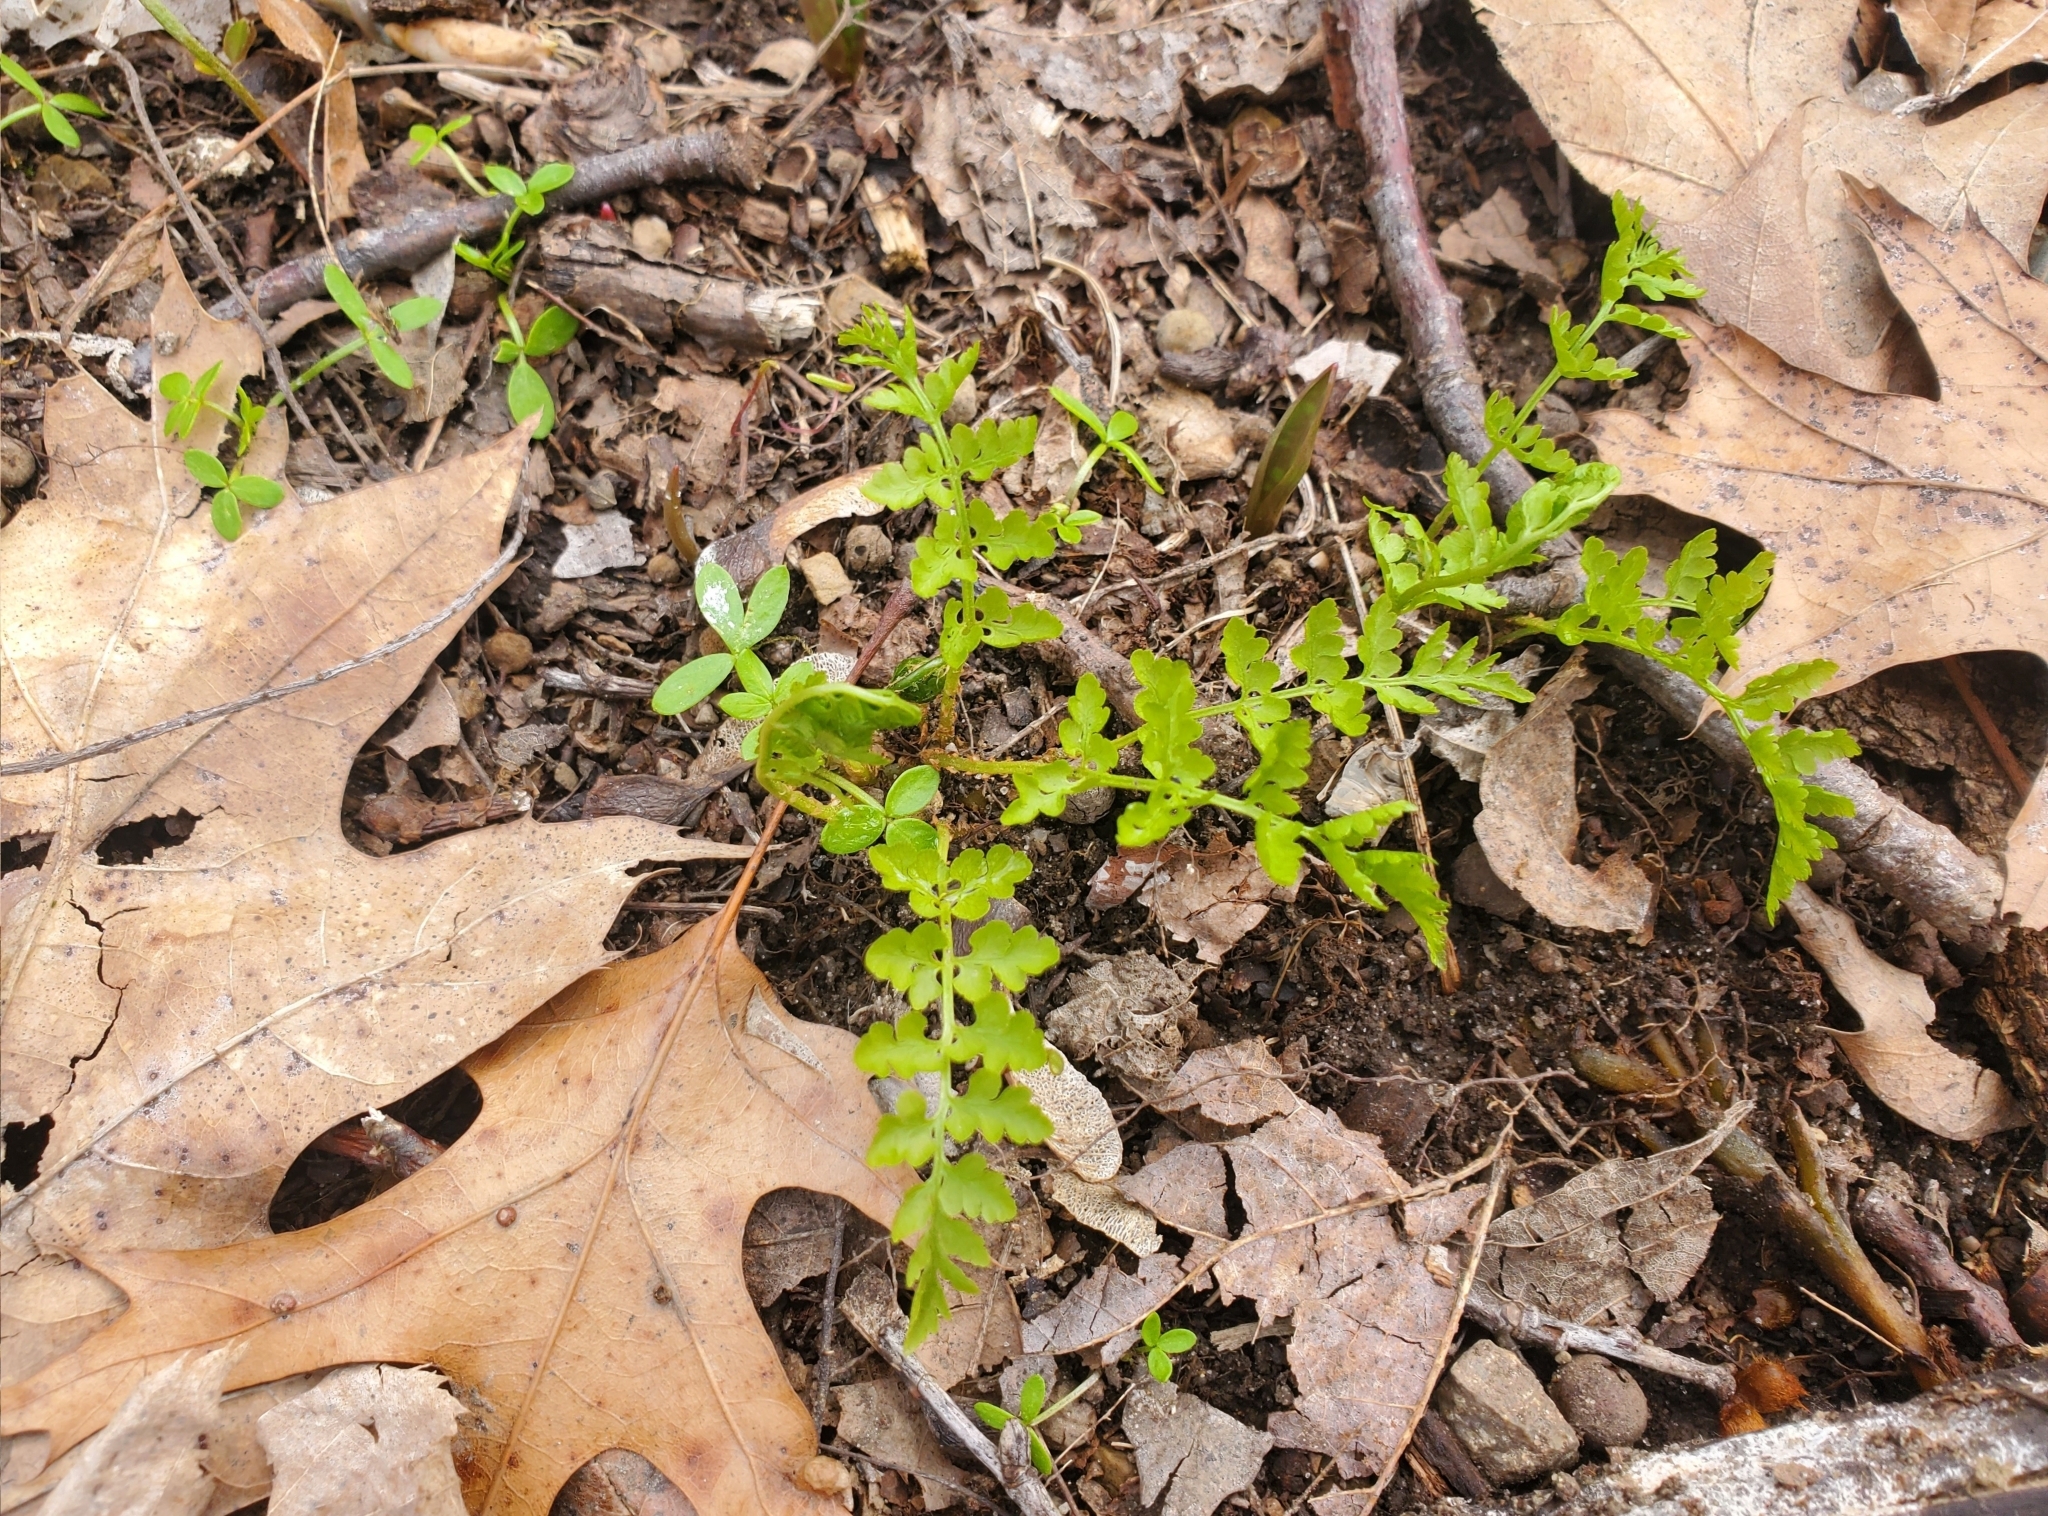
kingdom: Plantae
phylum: Tracheophyta
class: Polypodiopsida
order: Polypodiales
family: Cystopteridaceae
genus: Cystopteris
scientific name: Cystopteris protrusa
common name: Lowland brittle fern
